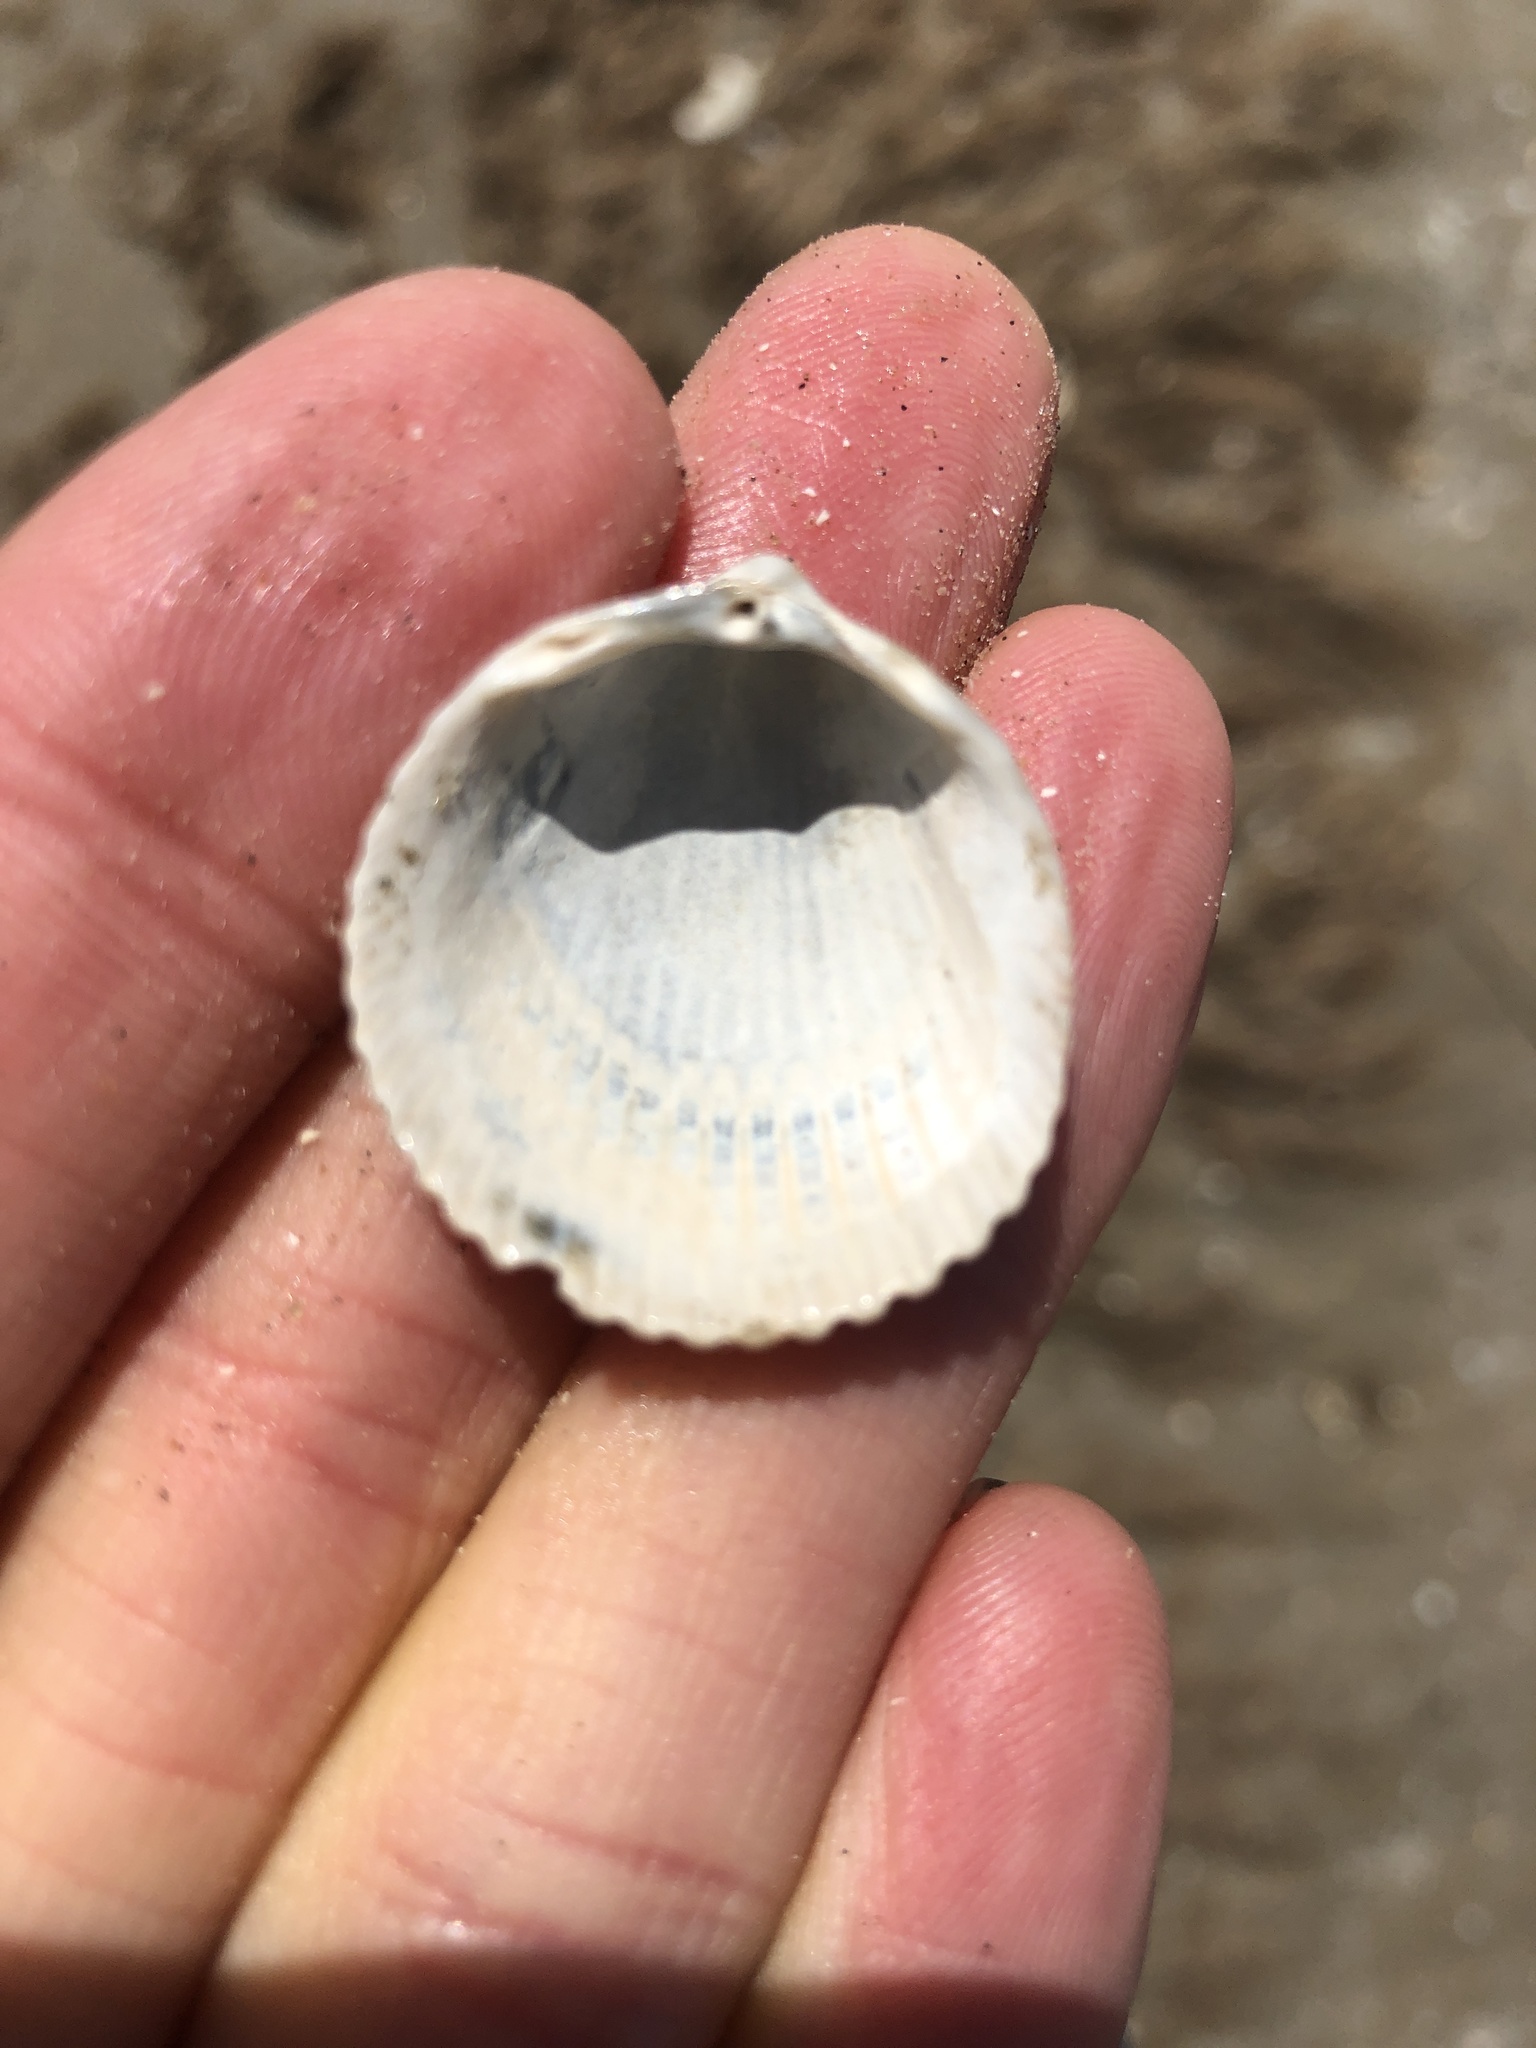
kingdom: Animalia
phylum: Mollusca
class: Bivalvia
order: Cardiida
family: Cardiidae
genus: Dallocardia
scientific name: Dallocardia muricata
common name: Yellow pricklycockle
